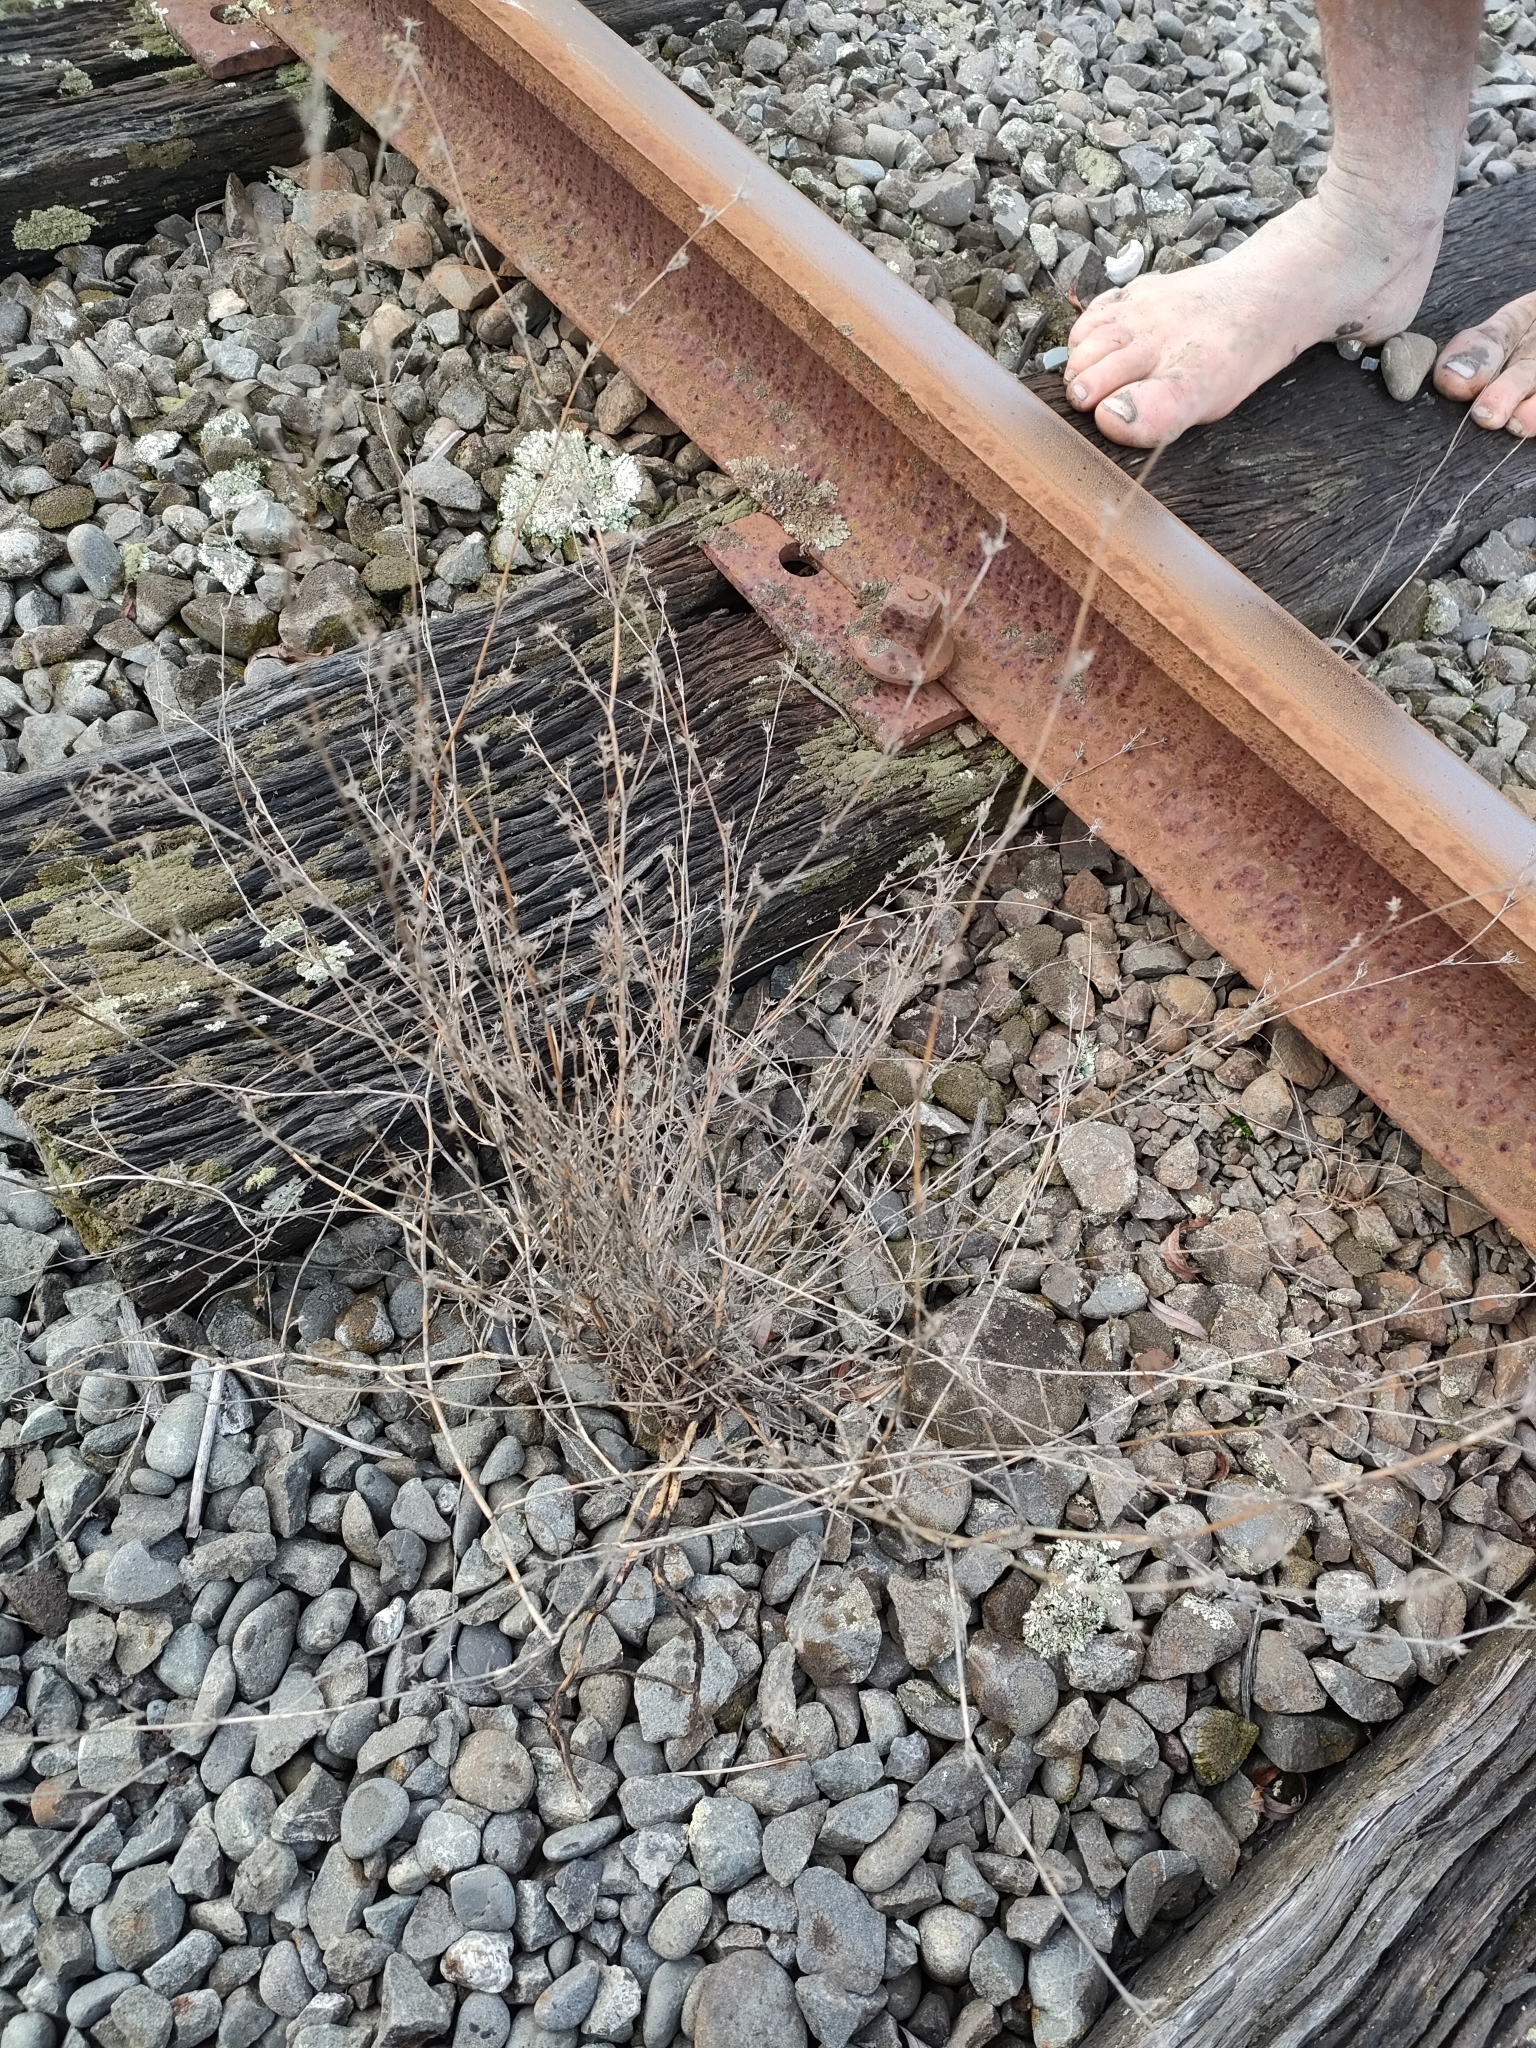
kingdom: Plantae
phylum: Tracheophyta
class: Magnoliopsida
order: Apiales
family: Apiaceae
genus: Bupleurum
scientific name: Bupleurum tenuissimum
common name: Slender hare's-ear
